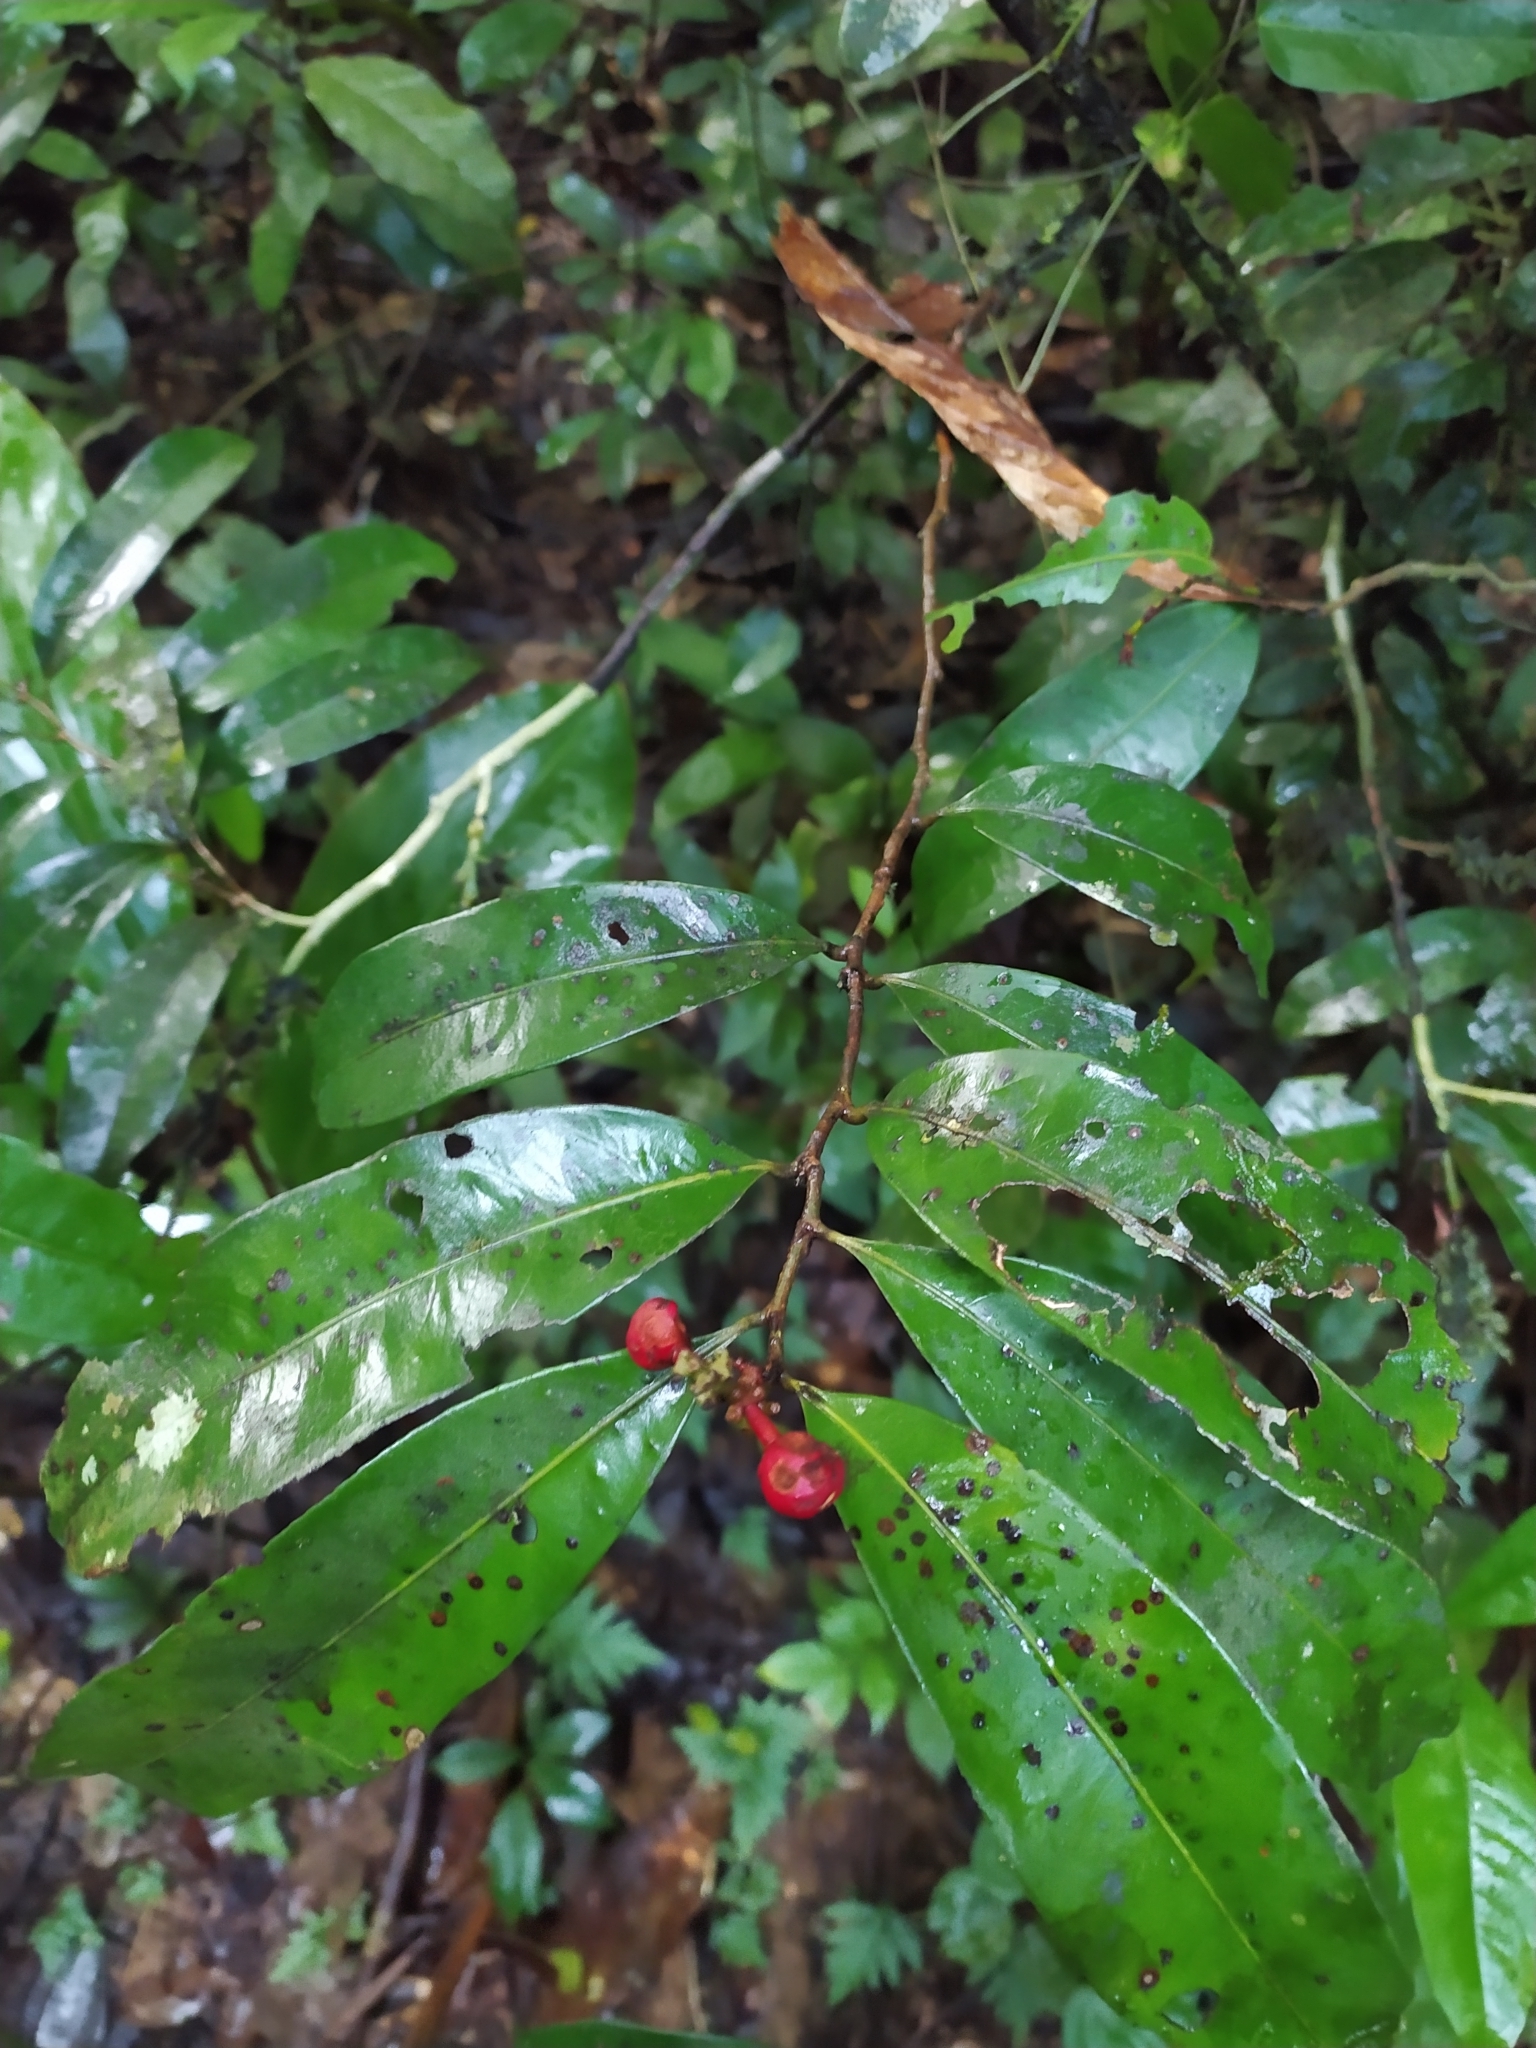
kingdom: Plantae
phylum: Tracheophyta
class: Magnoliopsida
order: Malpighiales
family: Ochnaceae
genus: Ouratea
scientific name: Ouratea
